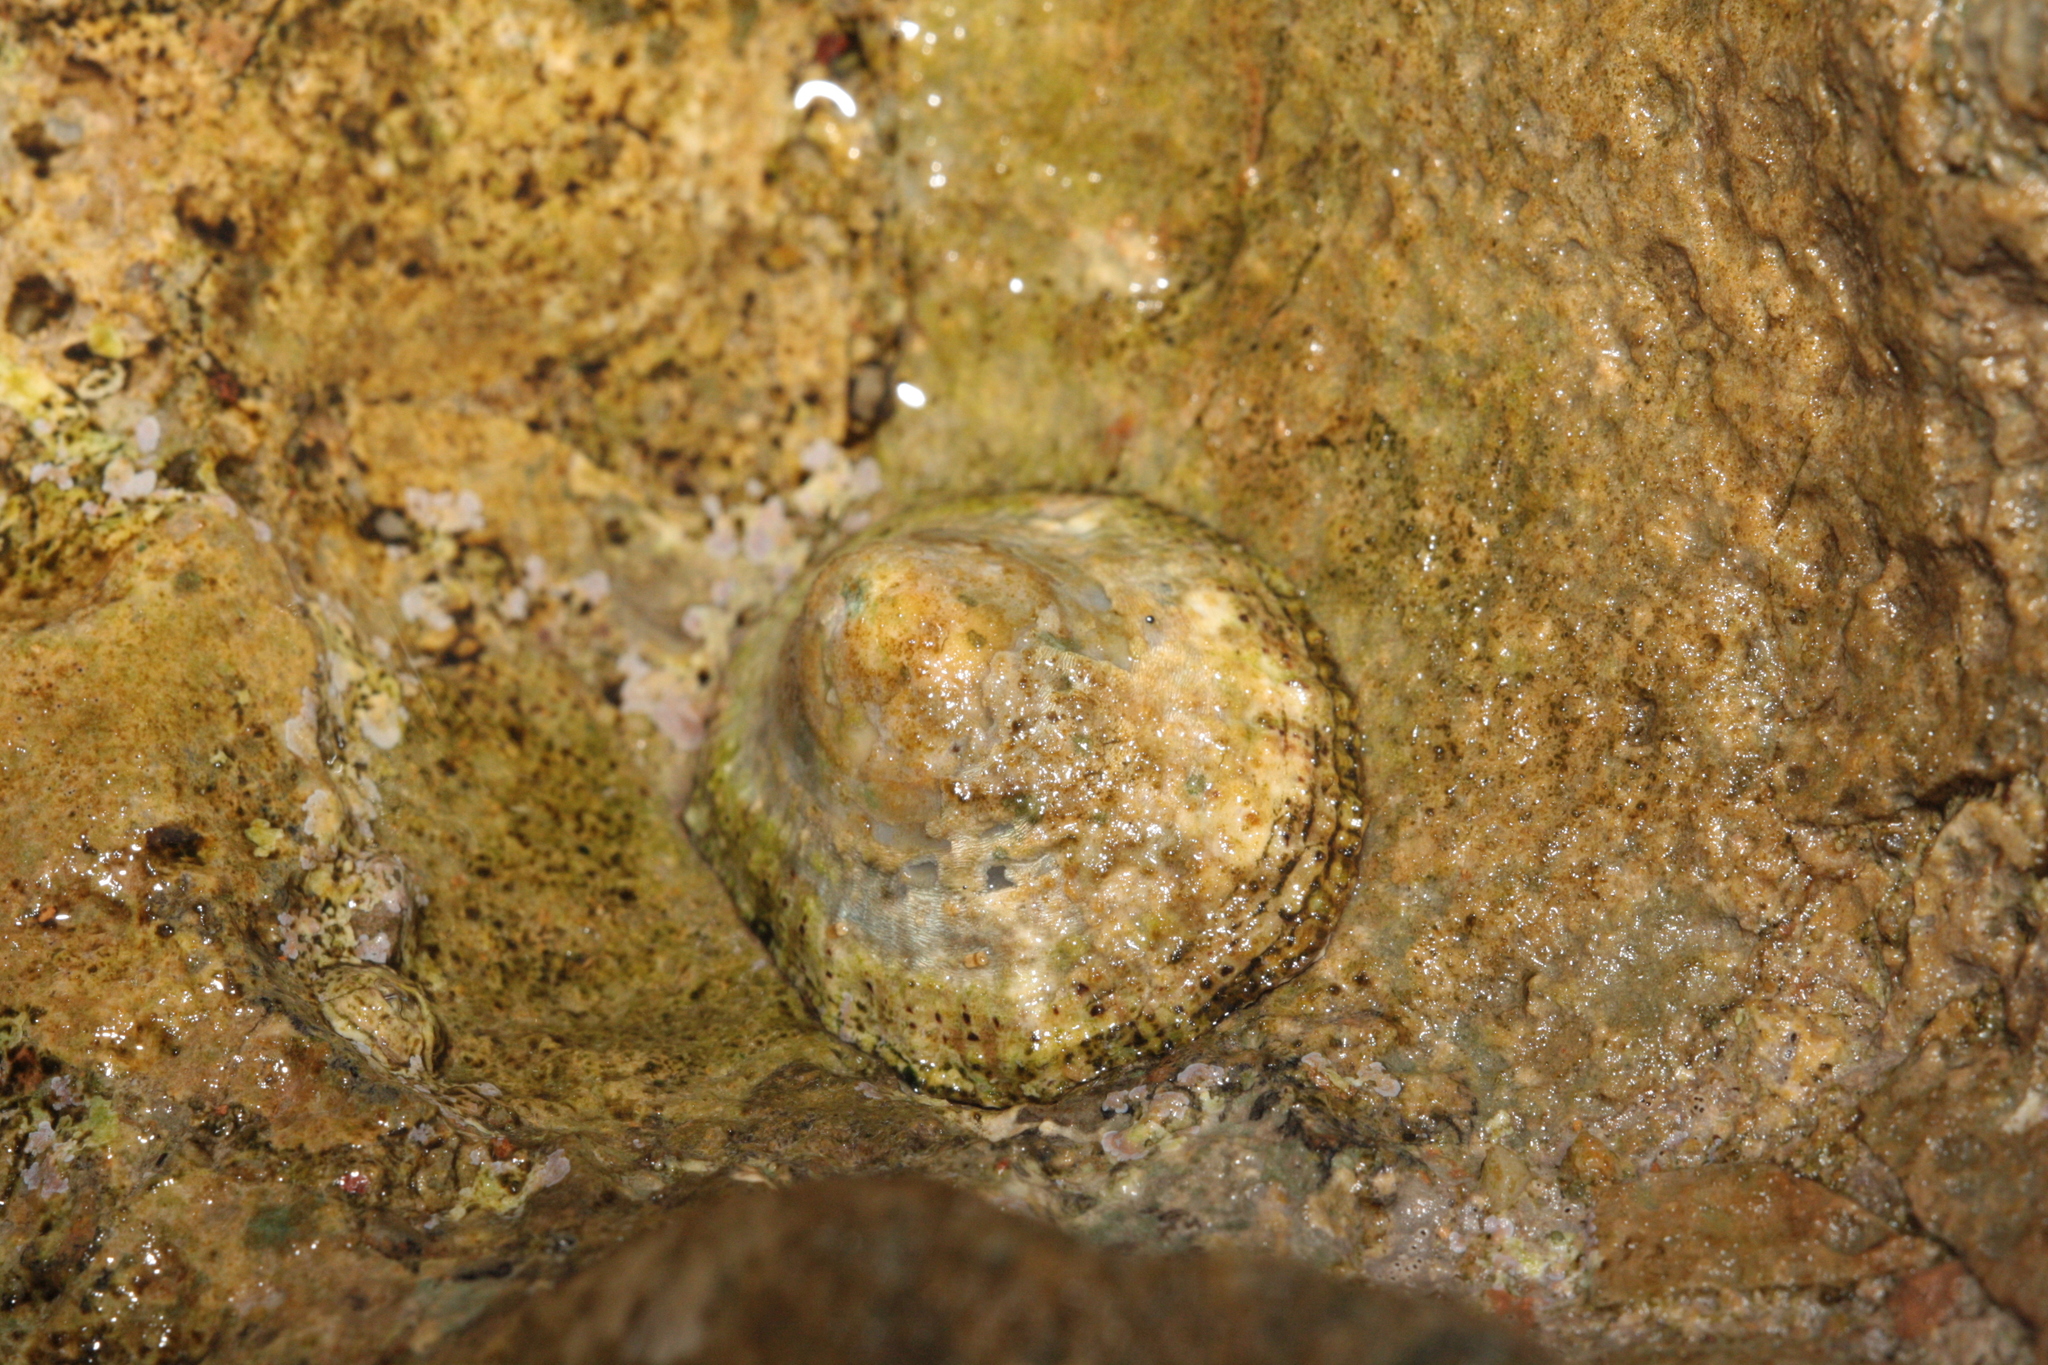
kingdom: Animalia
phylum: Mollusca
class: Gastropoda
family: Patellidae
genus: Patella
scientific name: Patella rustica
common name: Lusitanian limpet
